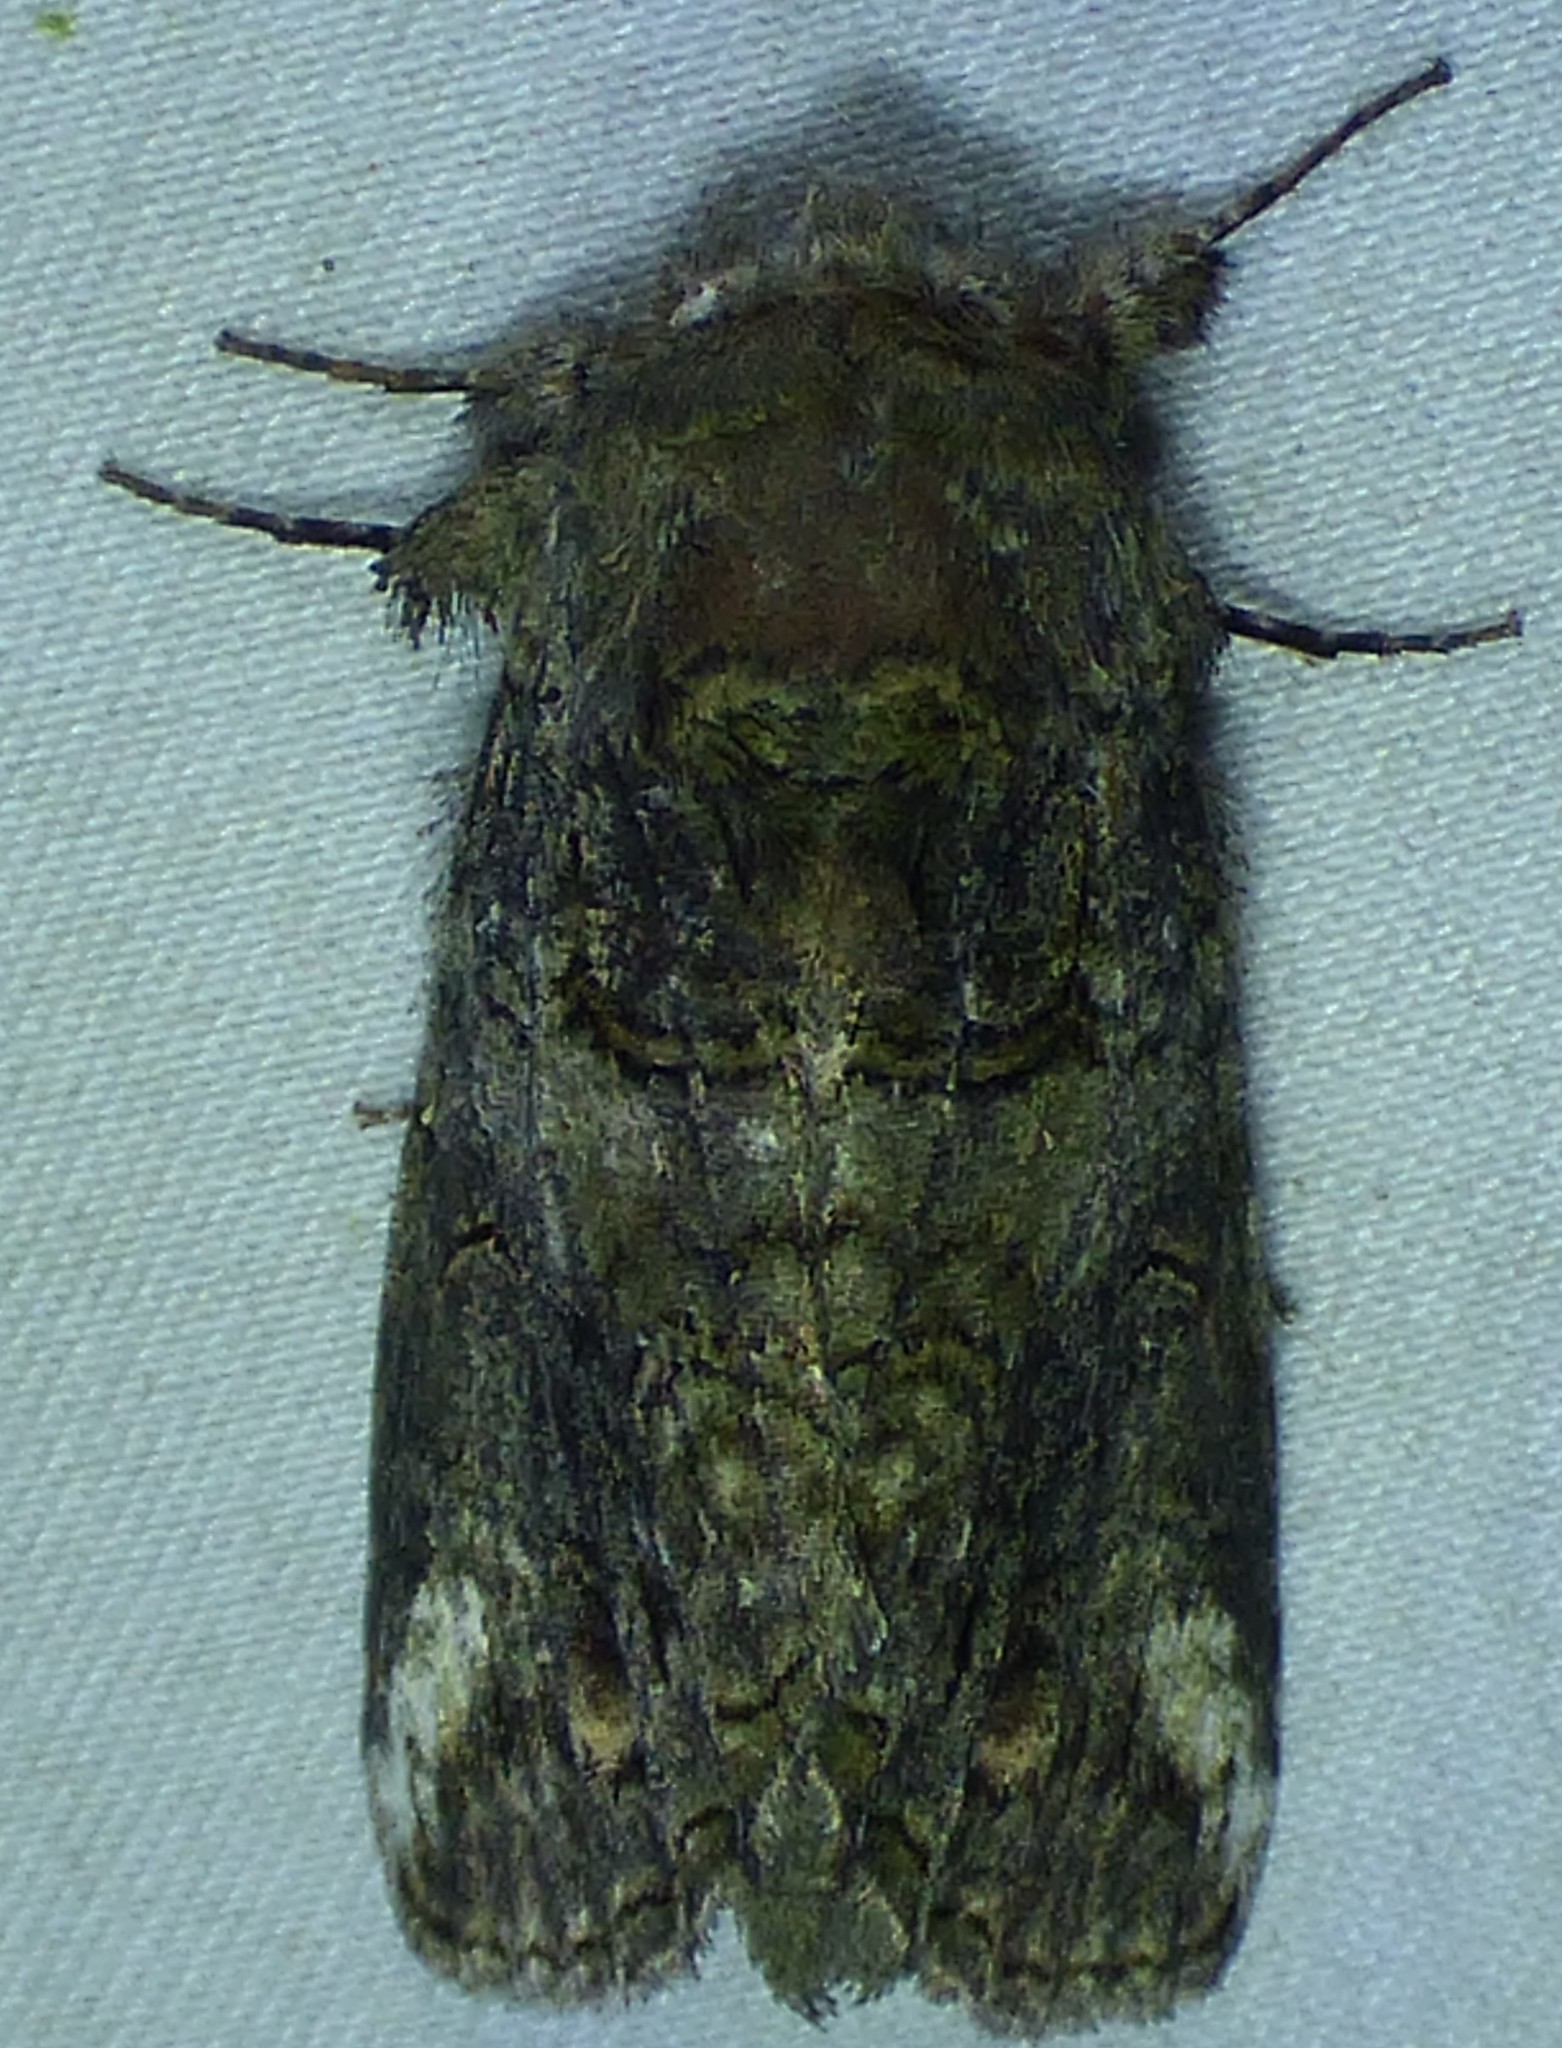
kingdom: Animalia
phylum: Arthropoda
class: Insecta
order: Lepidoptera
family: Notodontidae
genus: Heterocampa
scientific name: Heterocampa obliqua
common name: Oblique heterocampa
